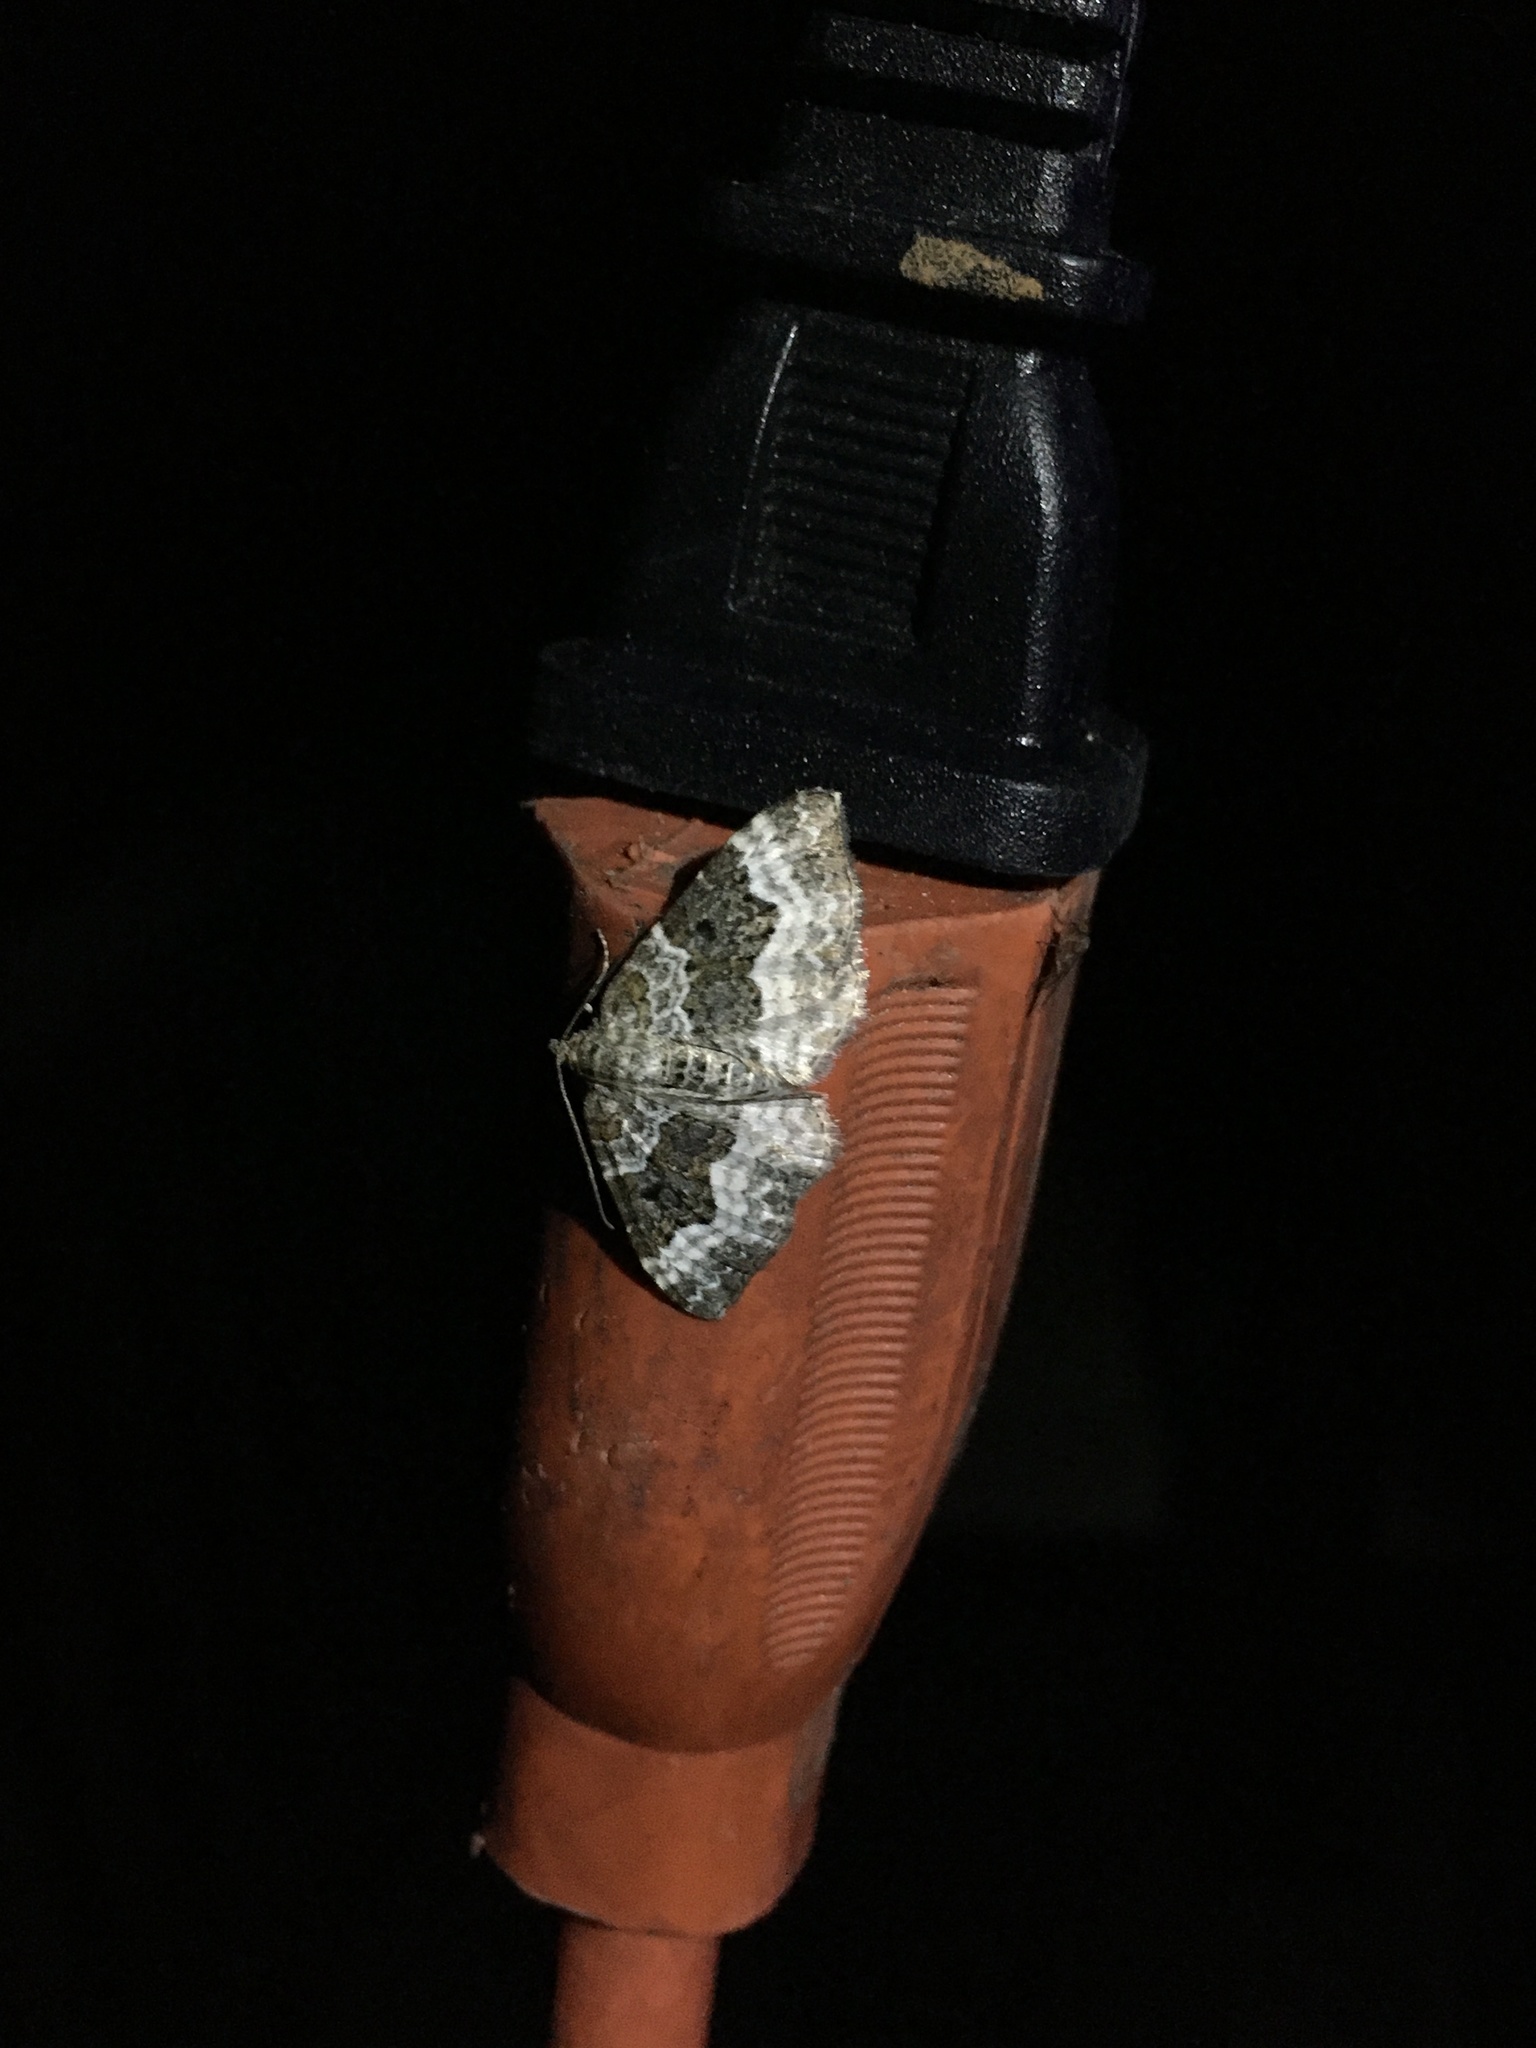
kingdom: Animalia
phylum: Arthropoda
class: Insecta
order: Lepidoptera
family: Geometridae
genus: Epirrhoe
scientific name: Epirrhoe alternata
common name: Common carpet
